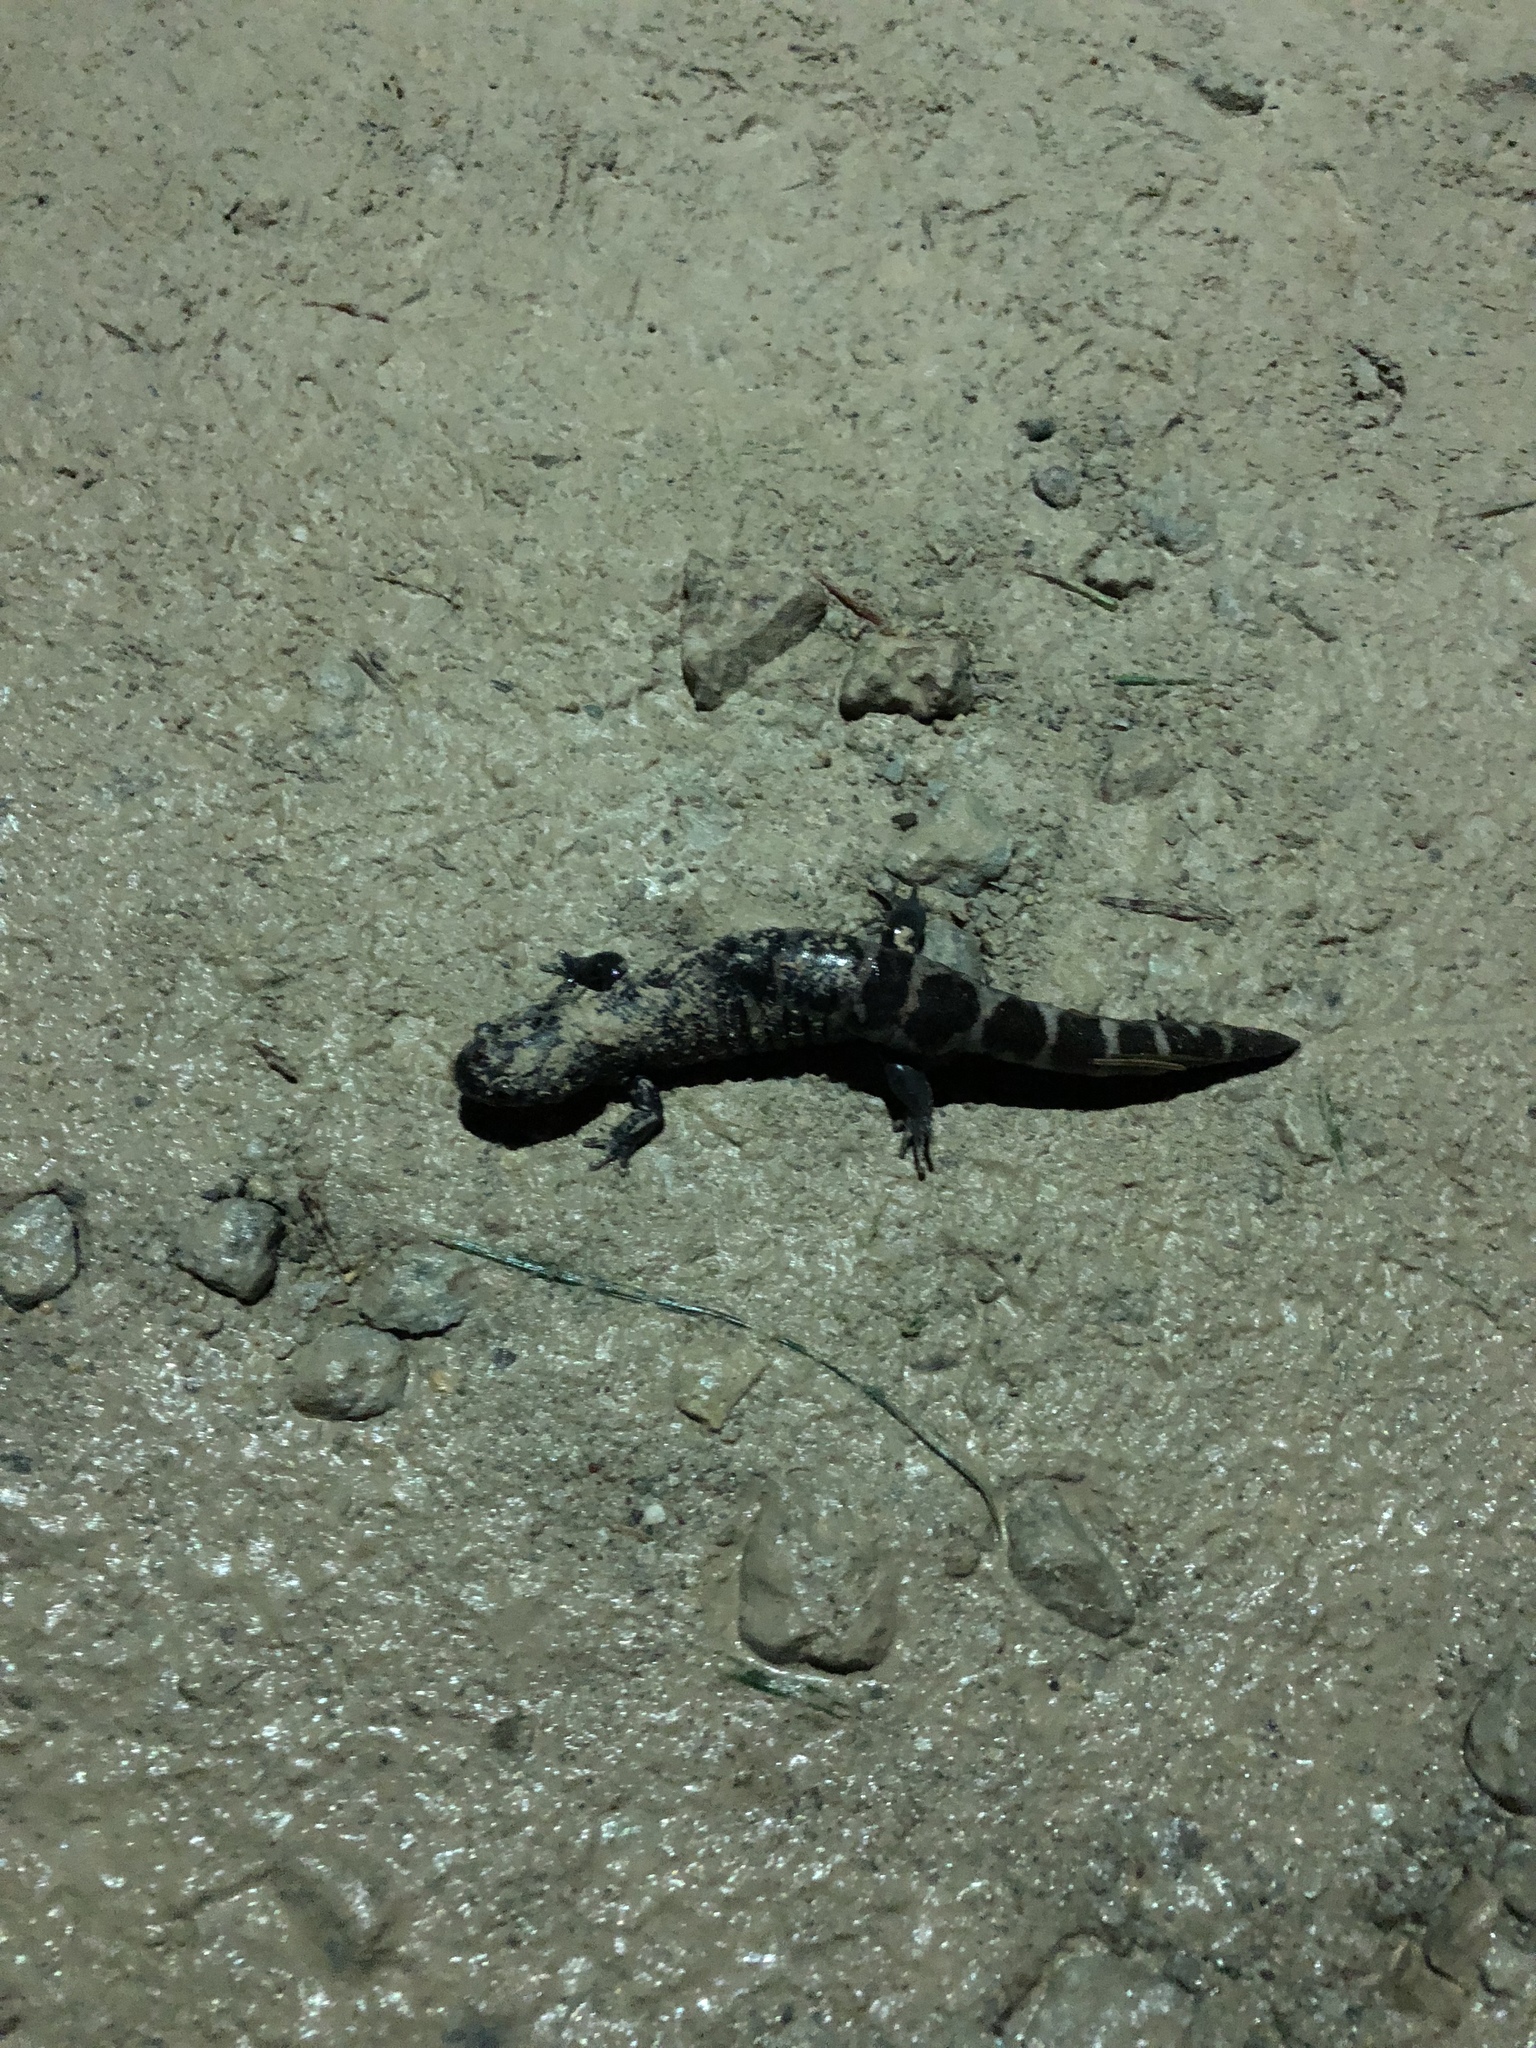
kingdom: Animalia
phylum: Chordata
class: Amphibia
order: Caudata
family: Ambystomatidae
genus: Ambystoma
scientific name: Ambystoma opacum
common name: Marbled salamander
